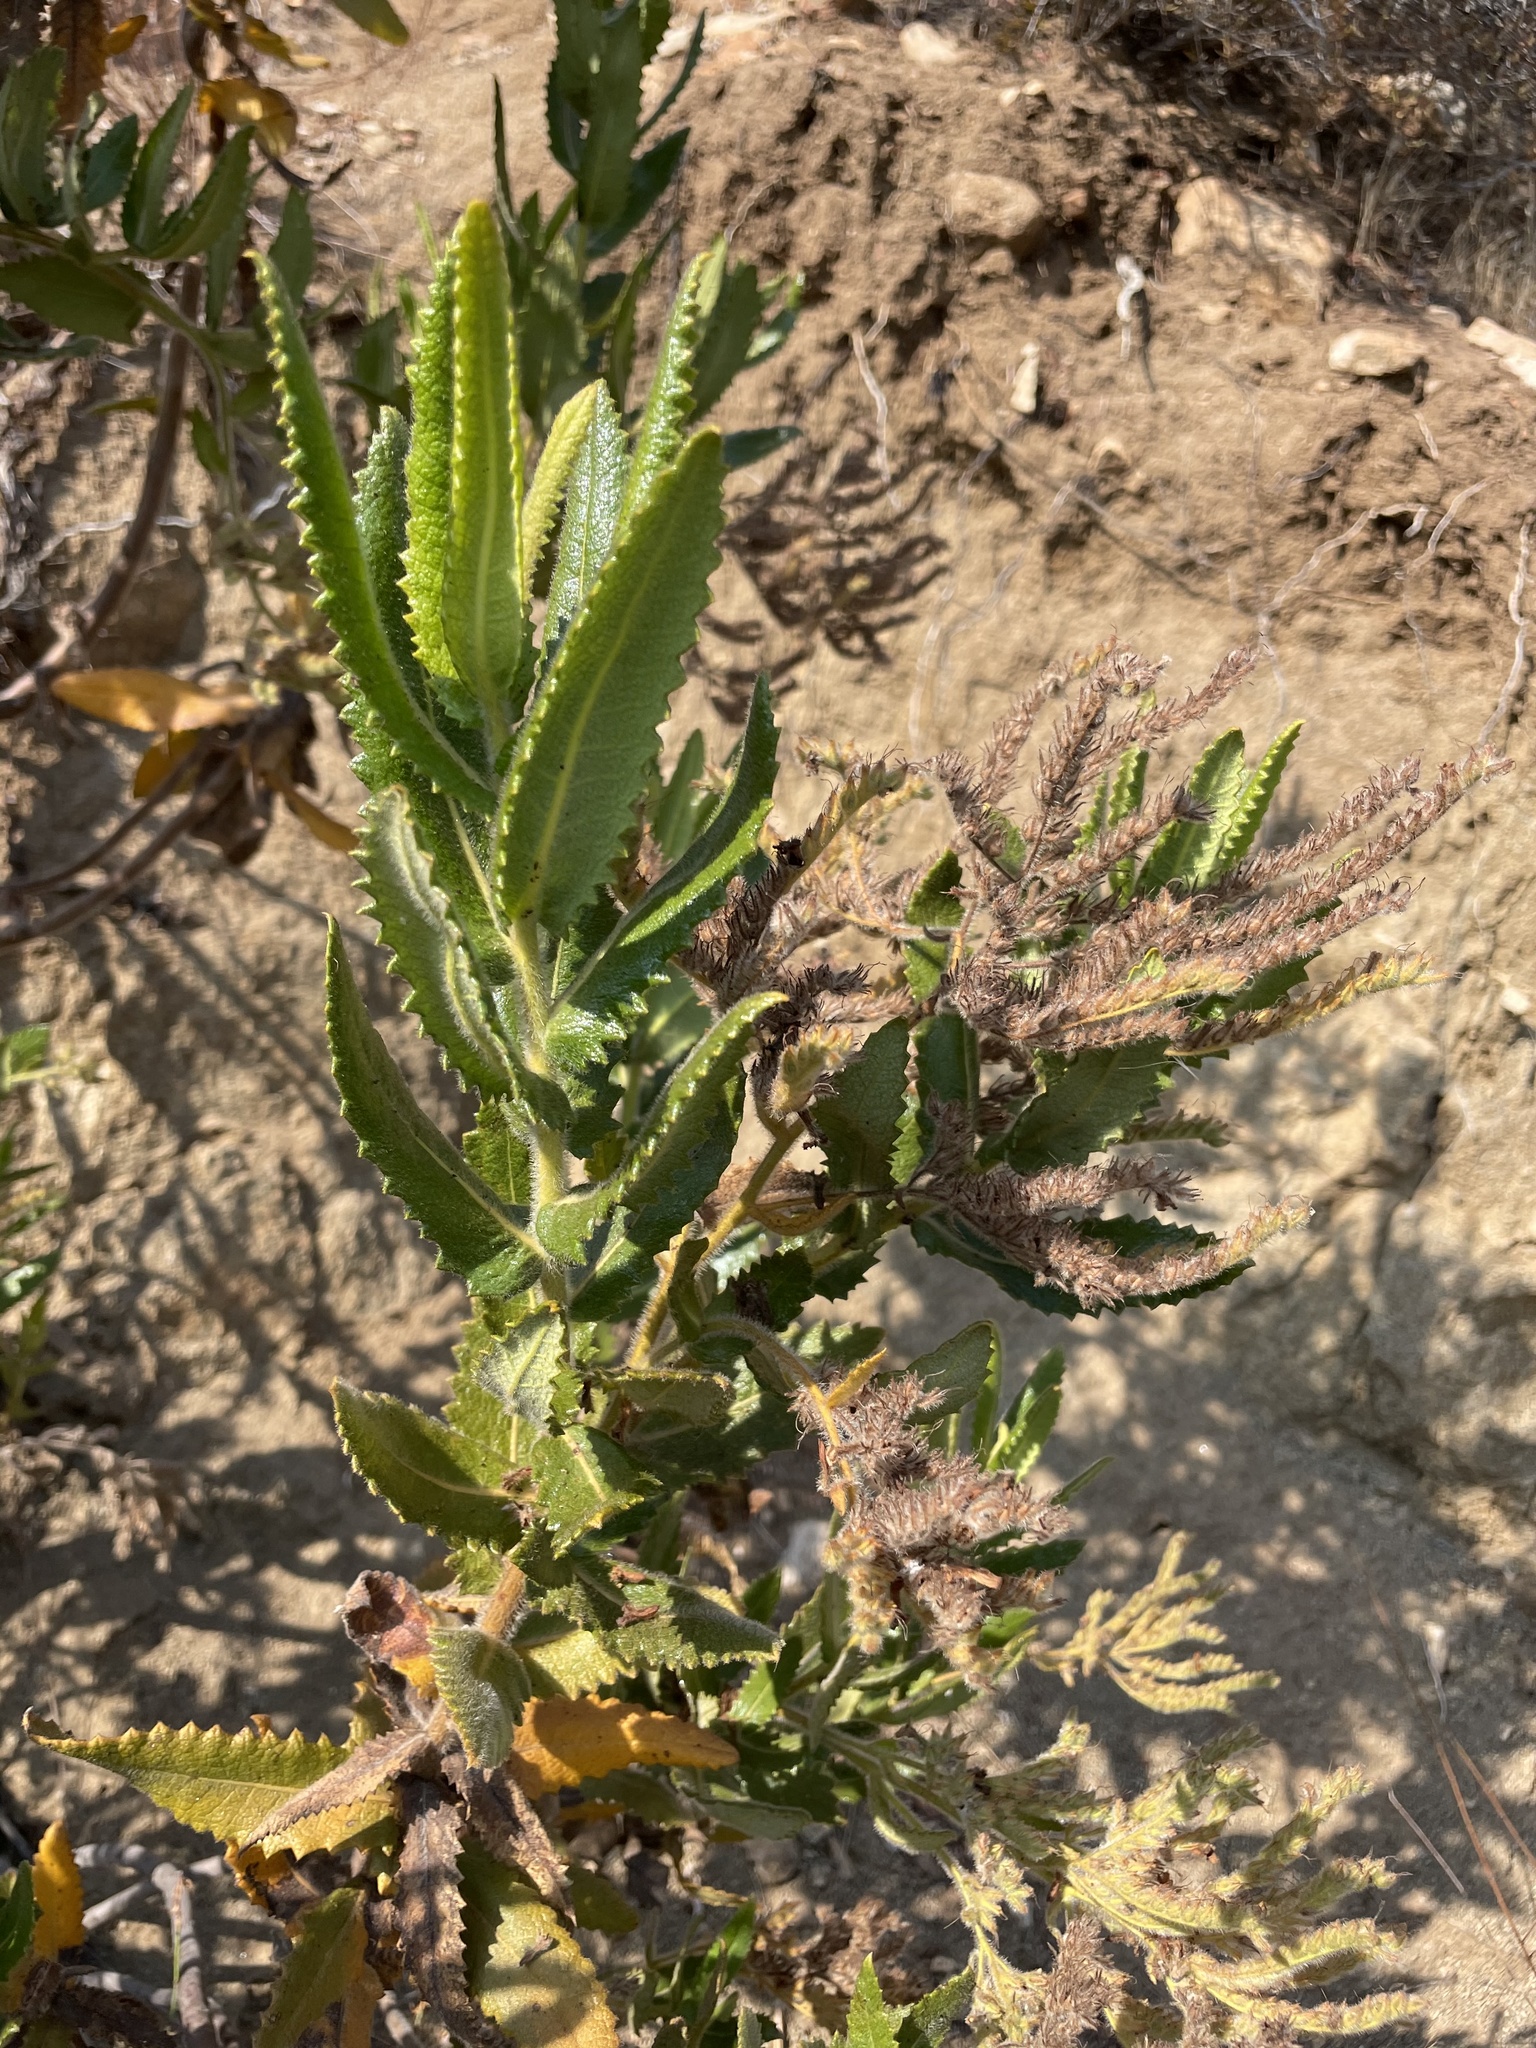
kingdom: Plantae
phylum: Tracheophyta
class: Magnoliopsida
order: Boraginales
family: Namaceae
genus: Eriodictyon
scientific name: Eriodictyon sessilifolium
